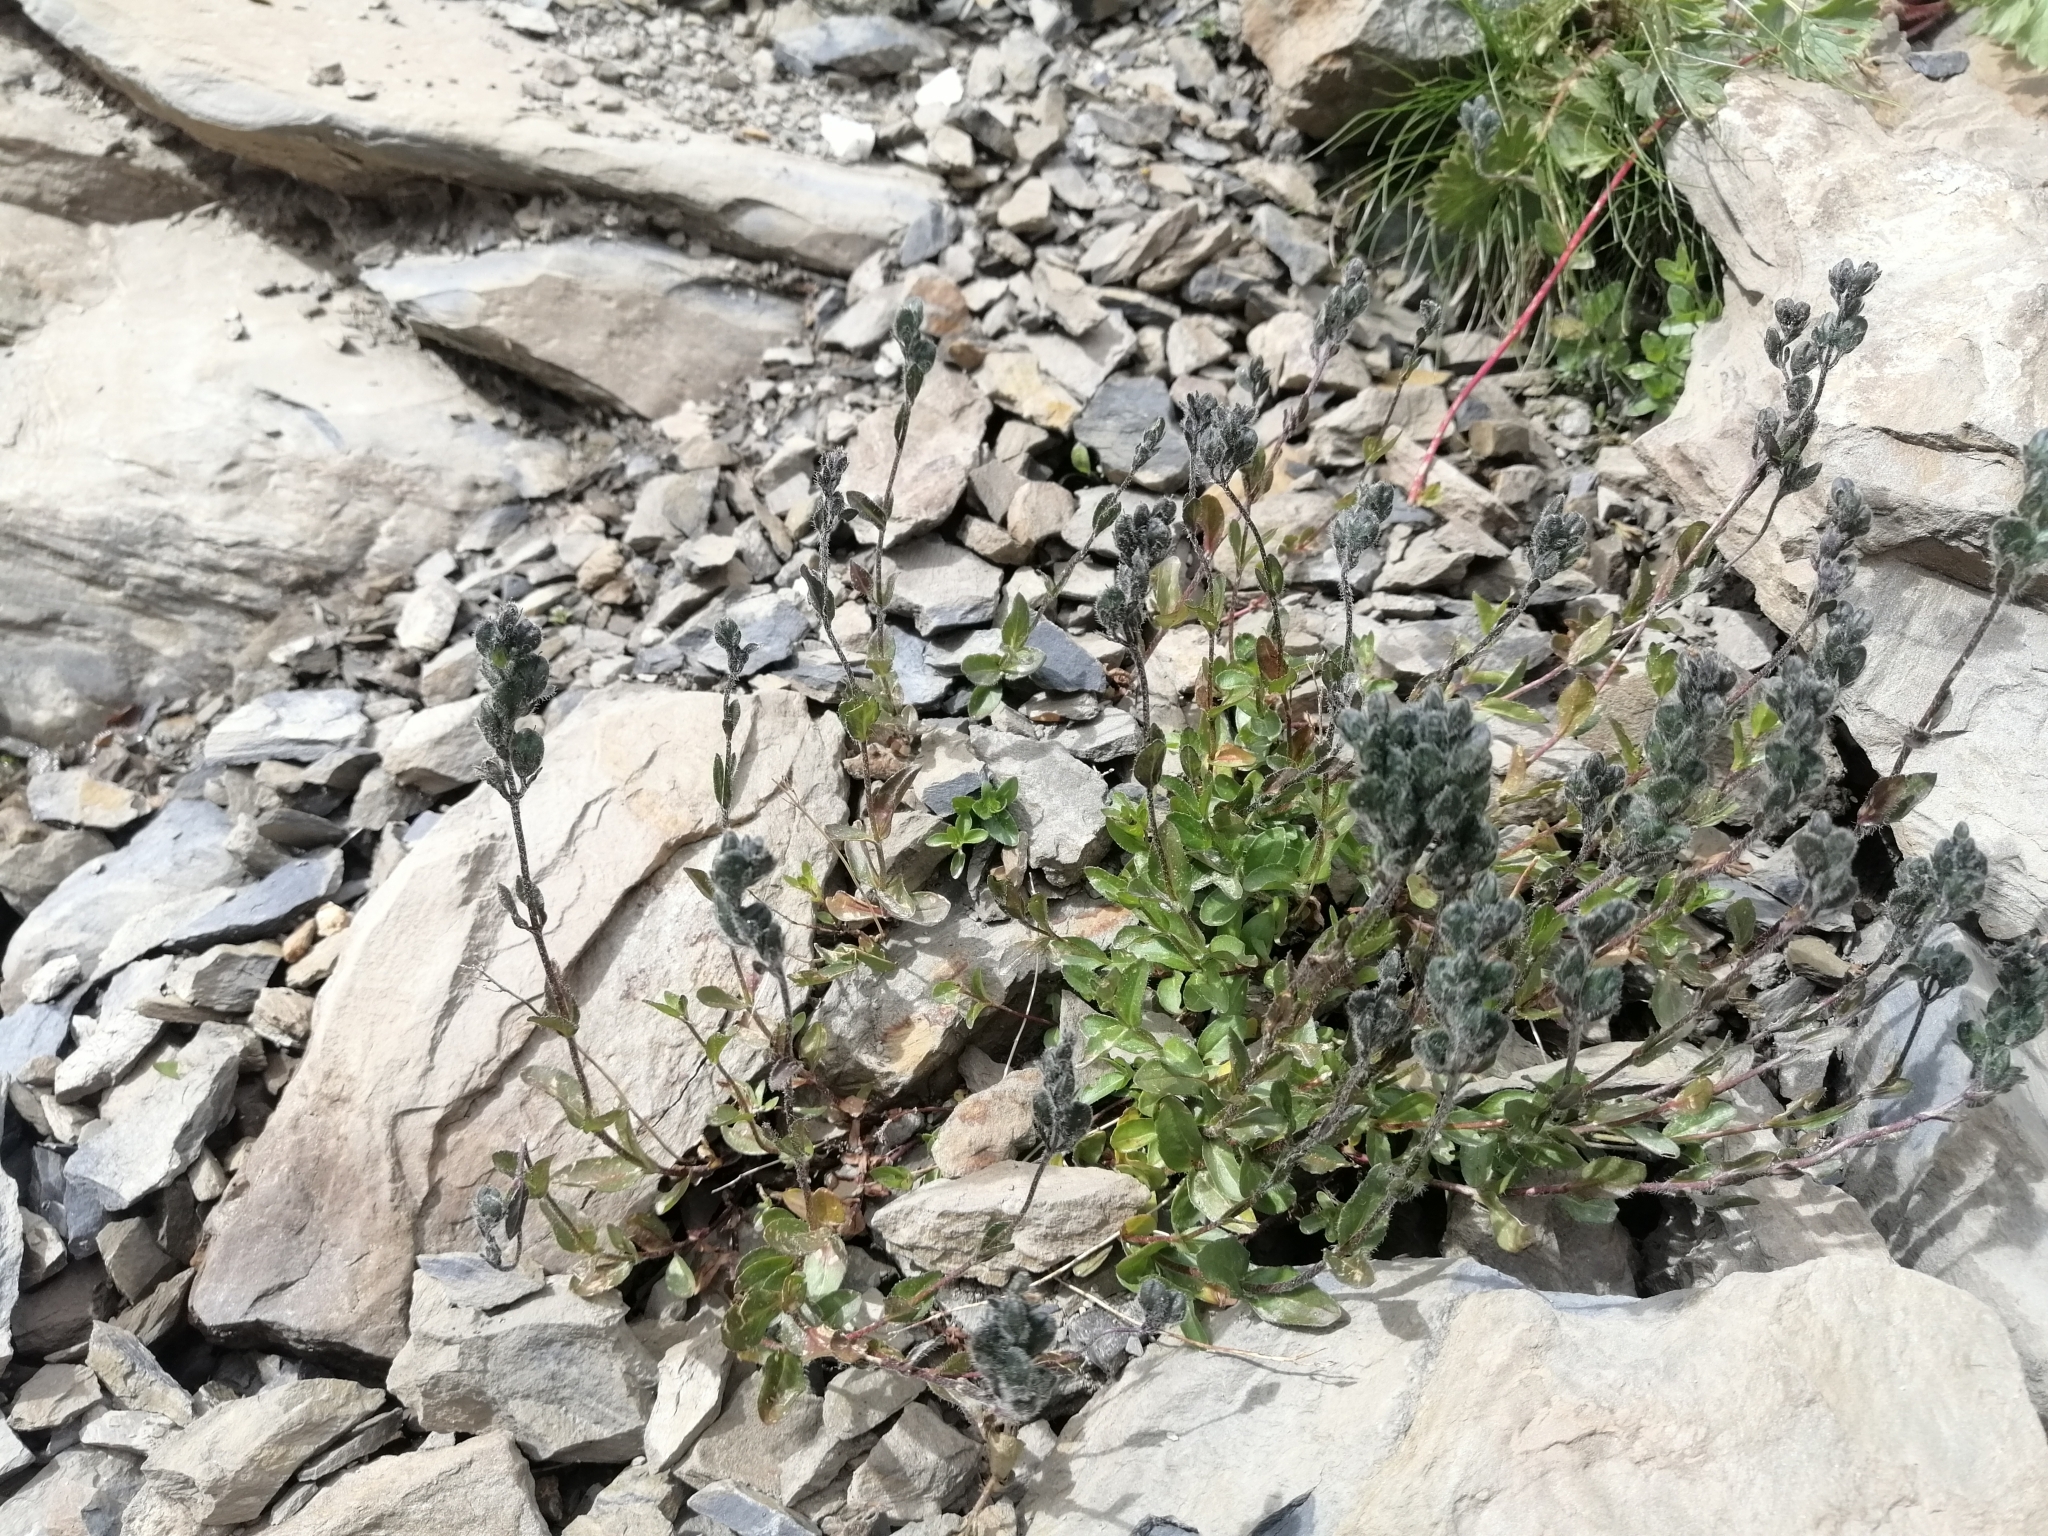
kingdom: Plantae
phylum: Tracheophyta
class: Magnoliopsida
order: Lamiales
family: Plantaginaceae
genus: Veronica
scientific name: Veronica alpina
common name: Alpine speedwell
